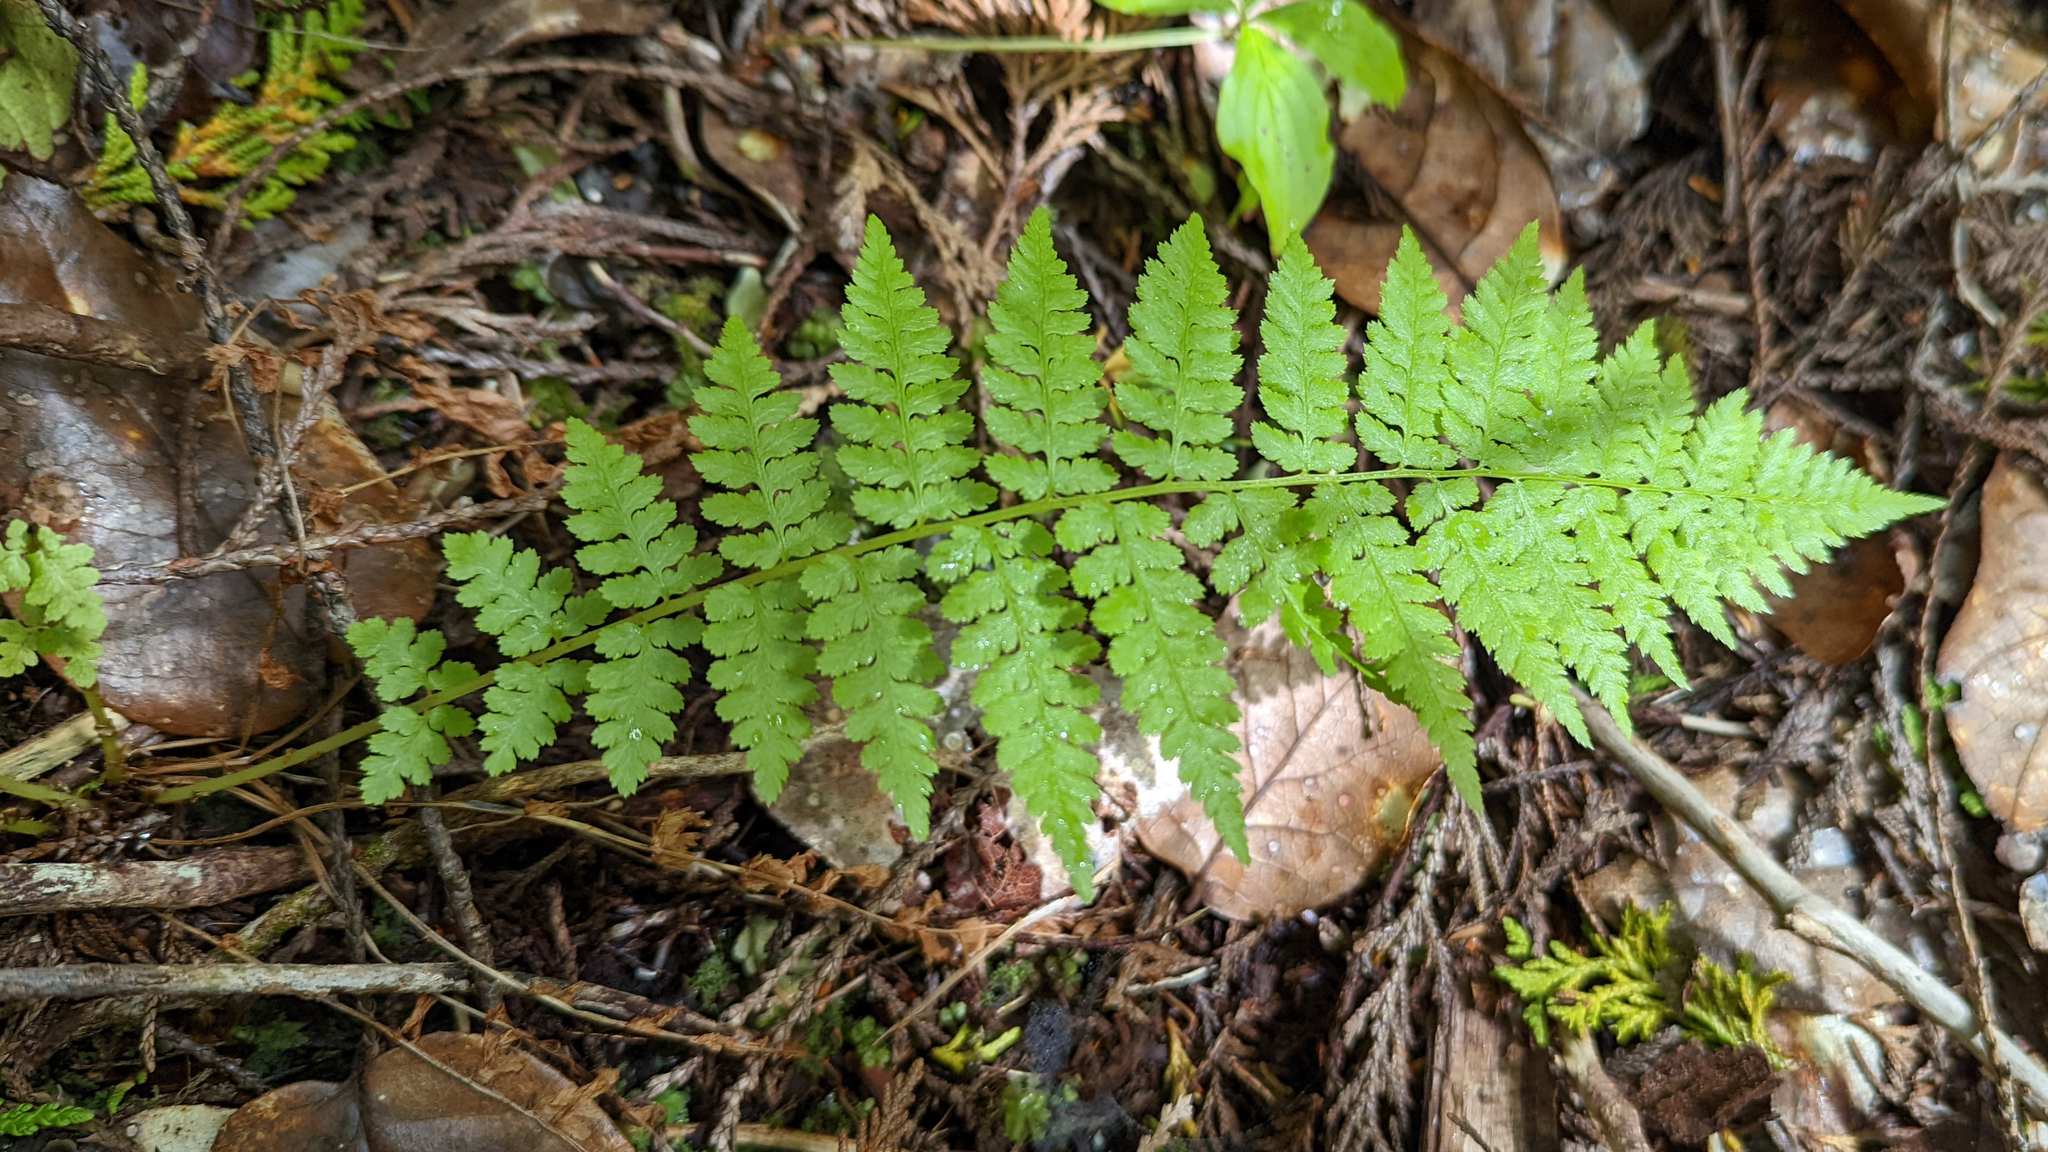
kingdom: Plantae
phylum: Tracheophyta
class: Polypodiopsida
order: Polypodiales
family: Athyriaceae
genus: Athyrium
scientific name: Athyrium filix-femina
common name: Lady fern
